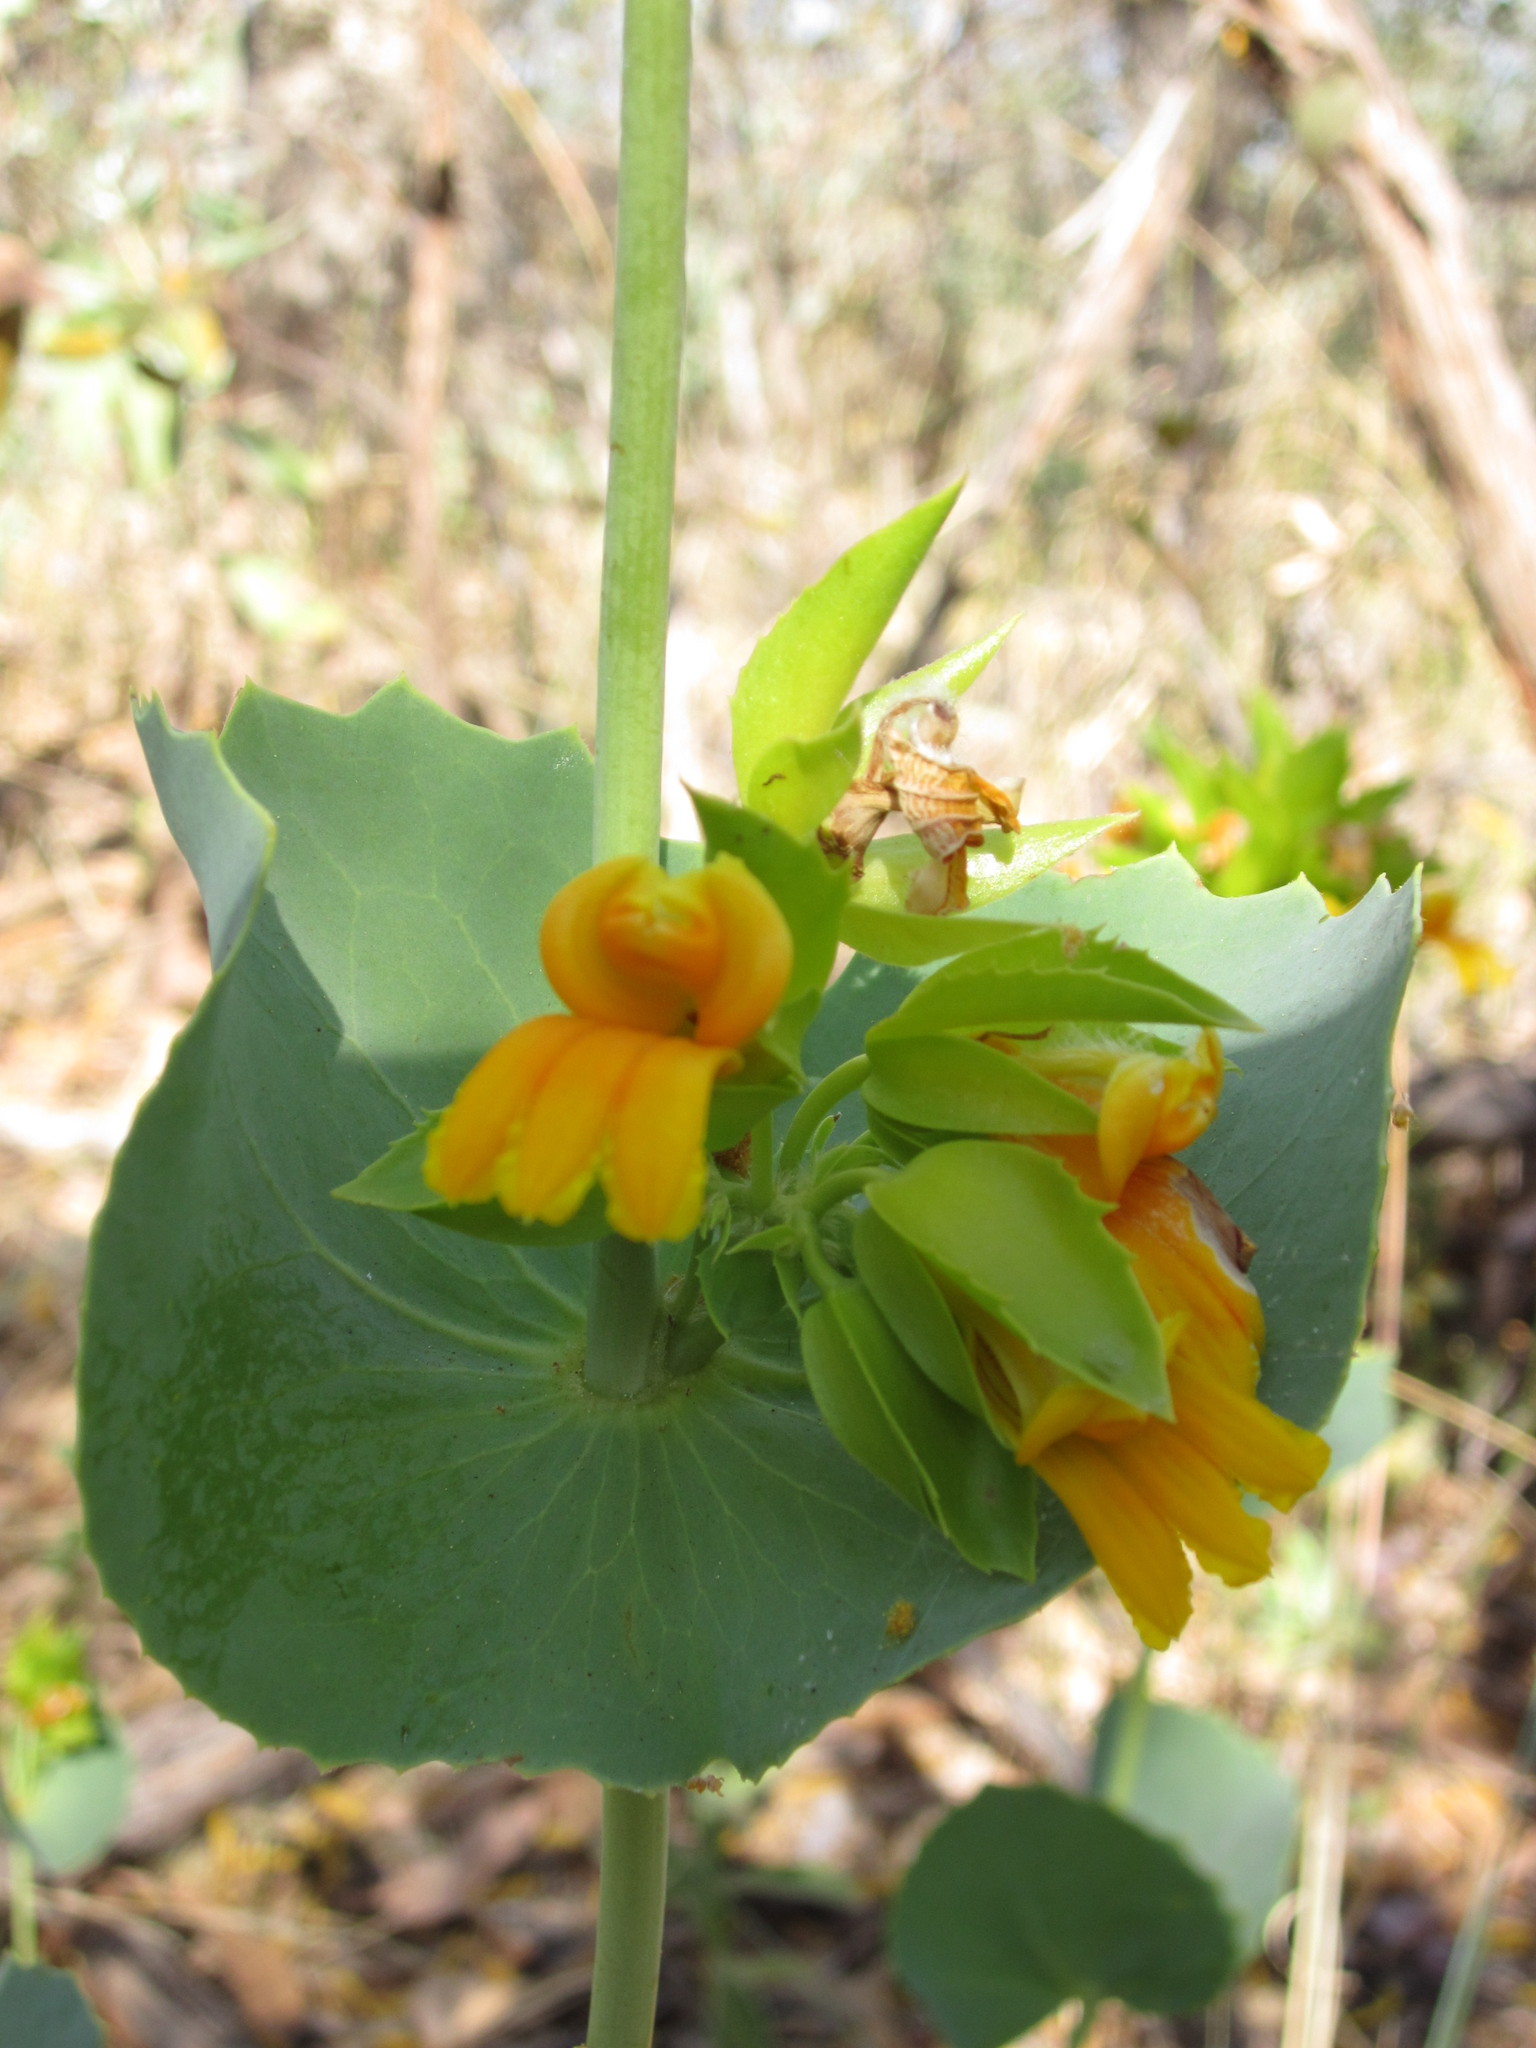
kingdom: Plantae
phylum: Tracheophyta
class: Magnoliopsida
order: Asterales
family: Goodeniaceae
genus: Goodenia
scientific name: Goodenia panduriformis
